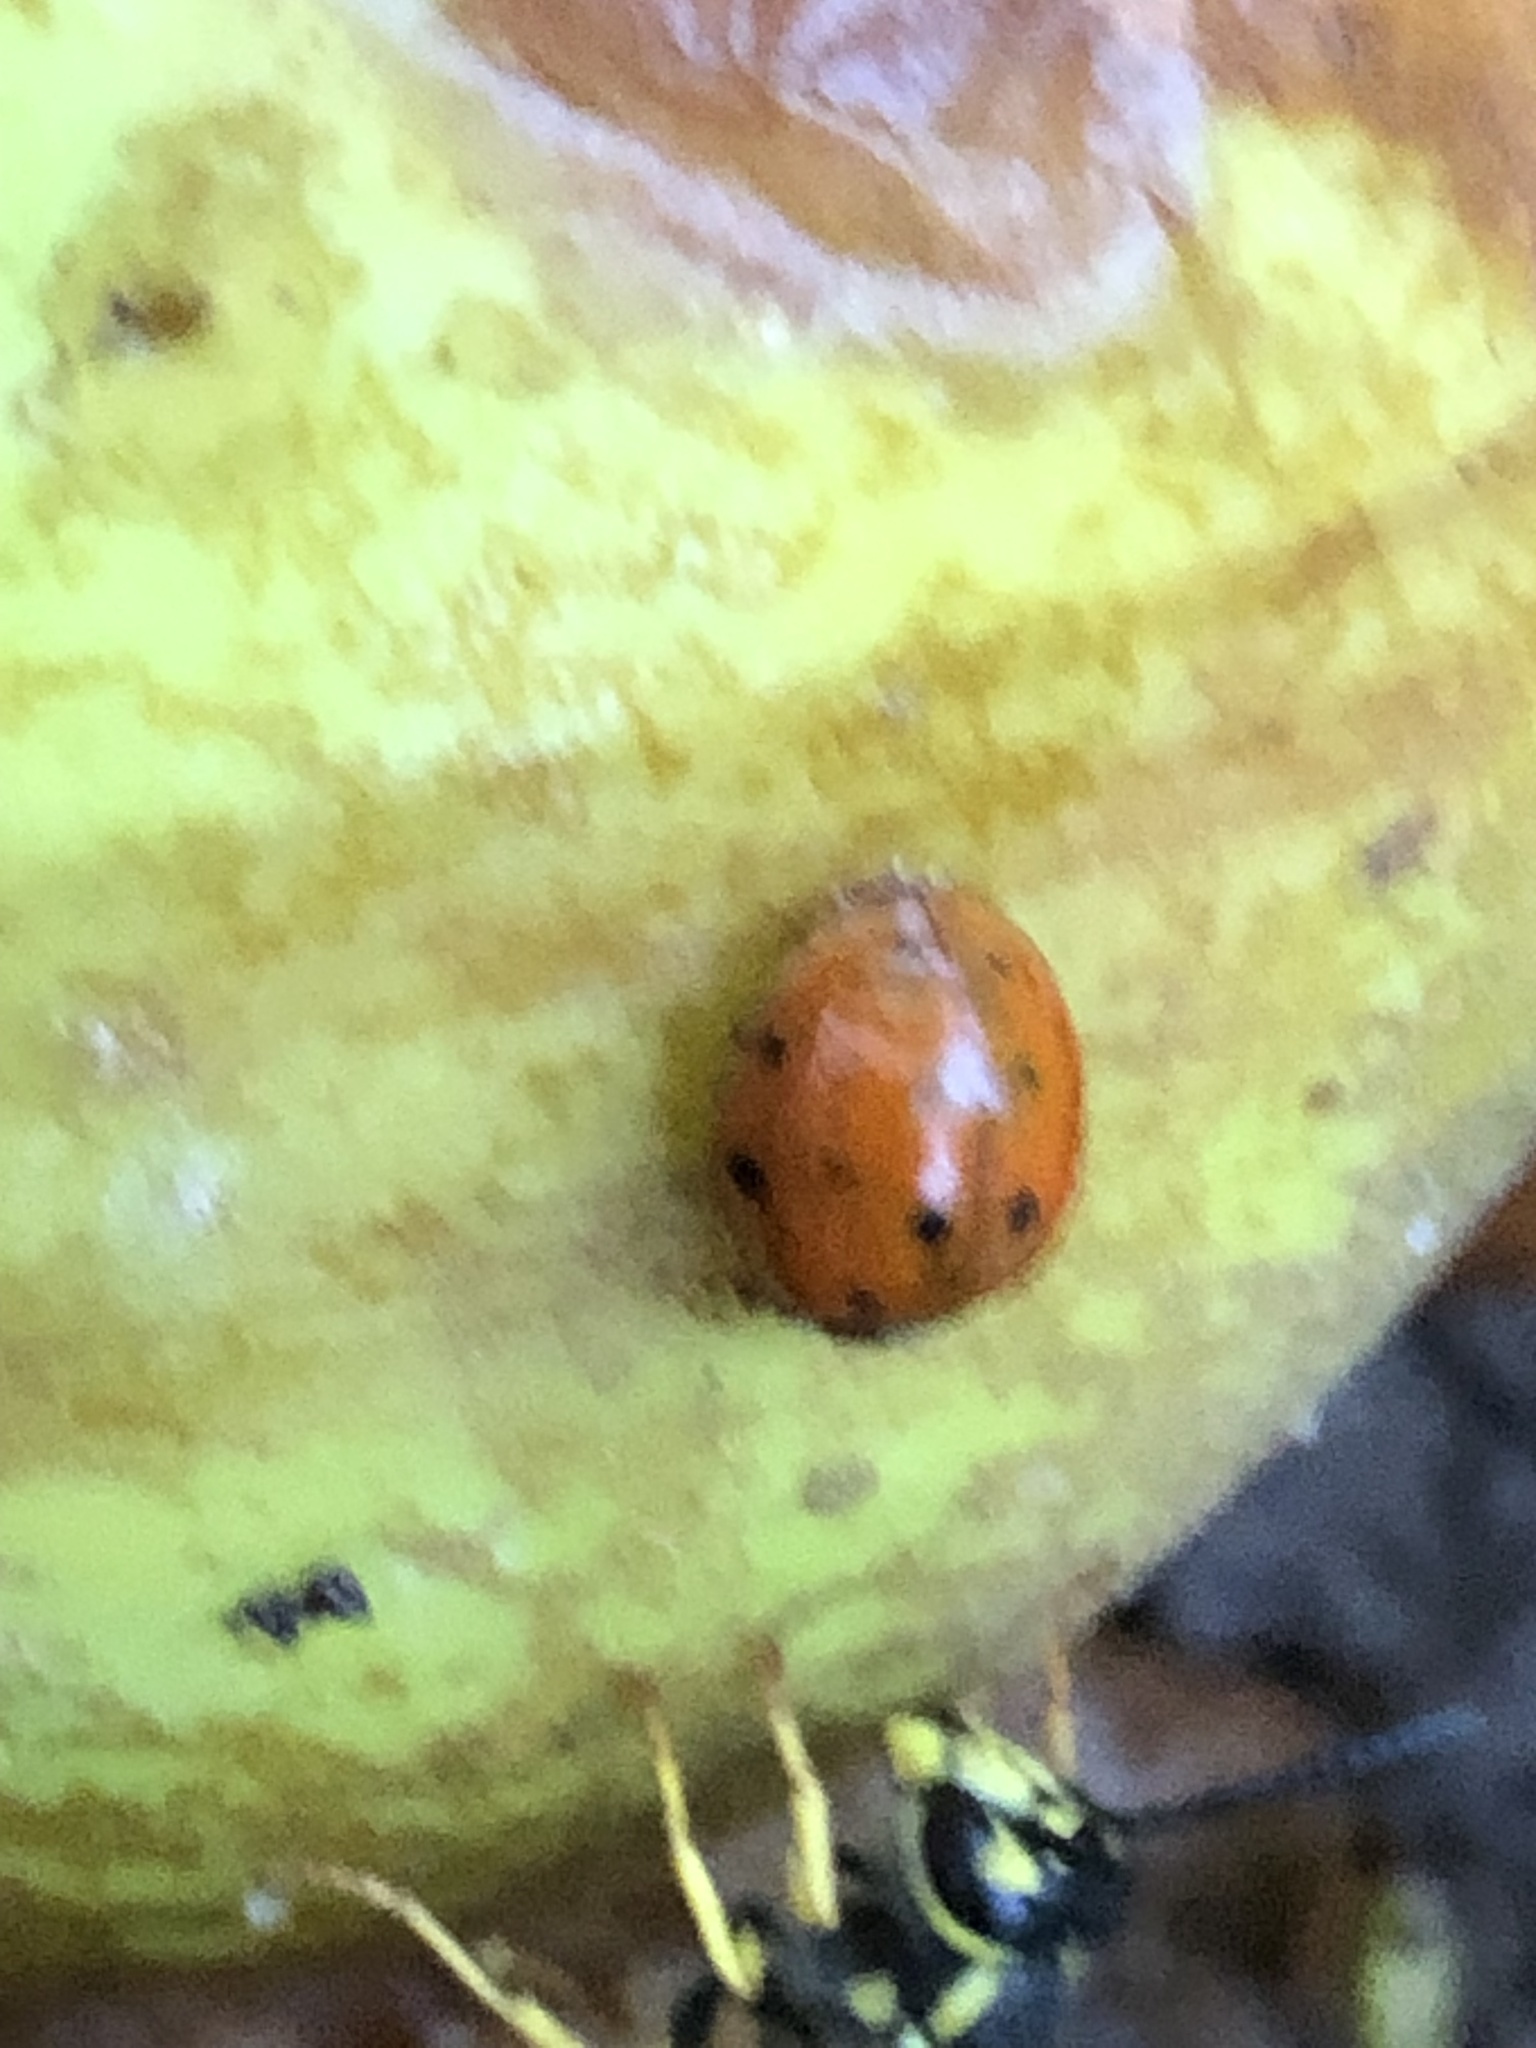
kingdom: Animalia
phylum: Arthropoda
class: Insecta
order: Coleoptera
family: Coccinellidae
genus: Harmonia
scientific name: Harmonia axyridis
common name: Harlequin ladybird
